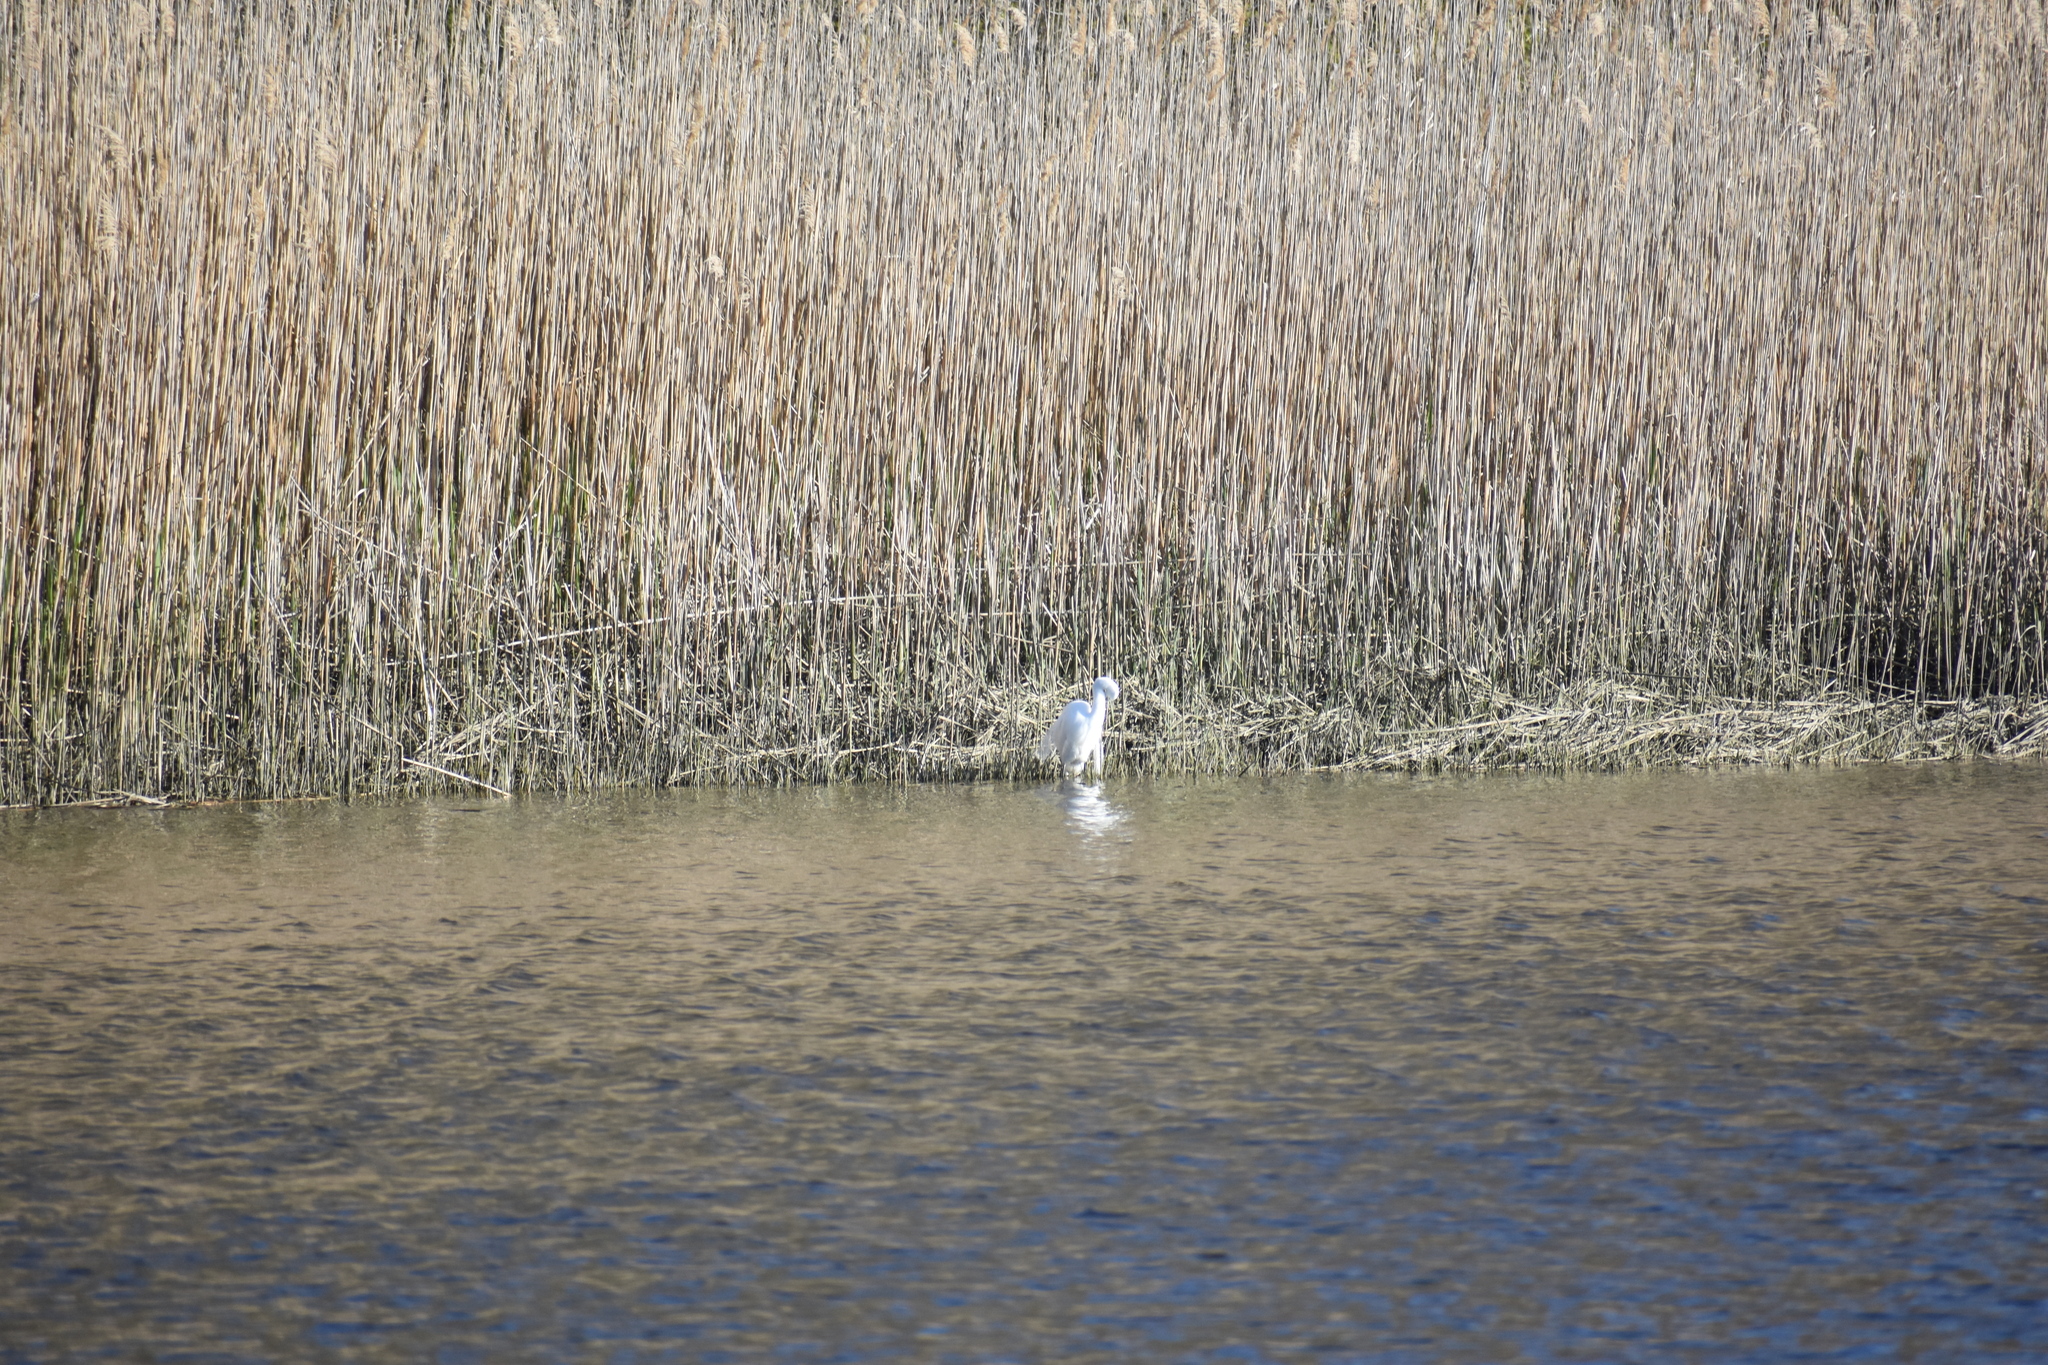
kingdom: Animalia
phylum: Chordata
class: Aves
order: Pelecaniformes
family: Ardeidae
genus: Ardea
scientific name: Ardea alba
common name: Great egret
